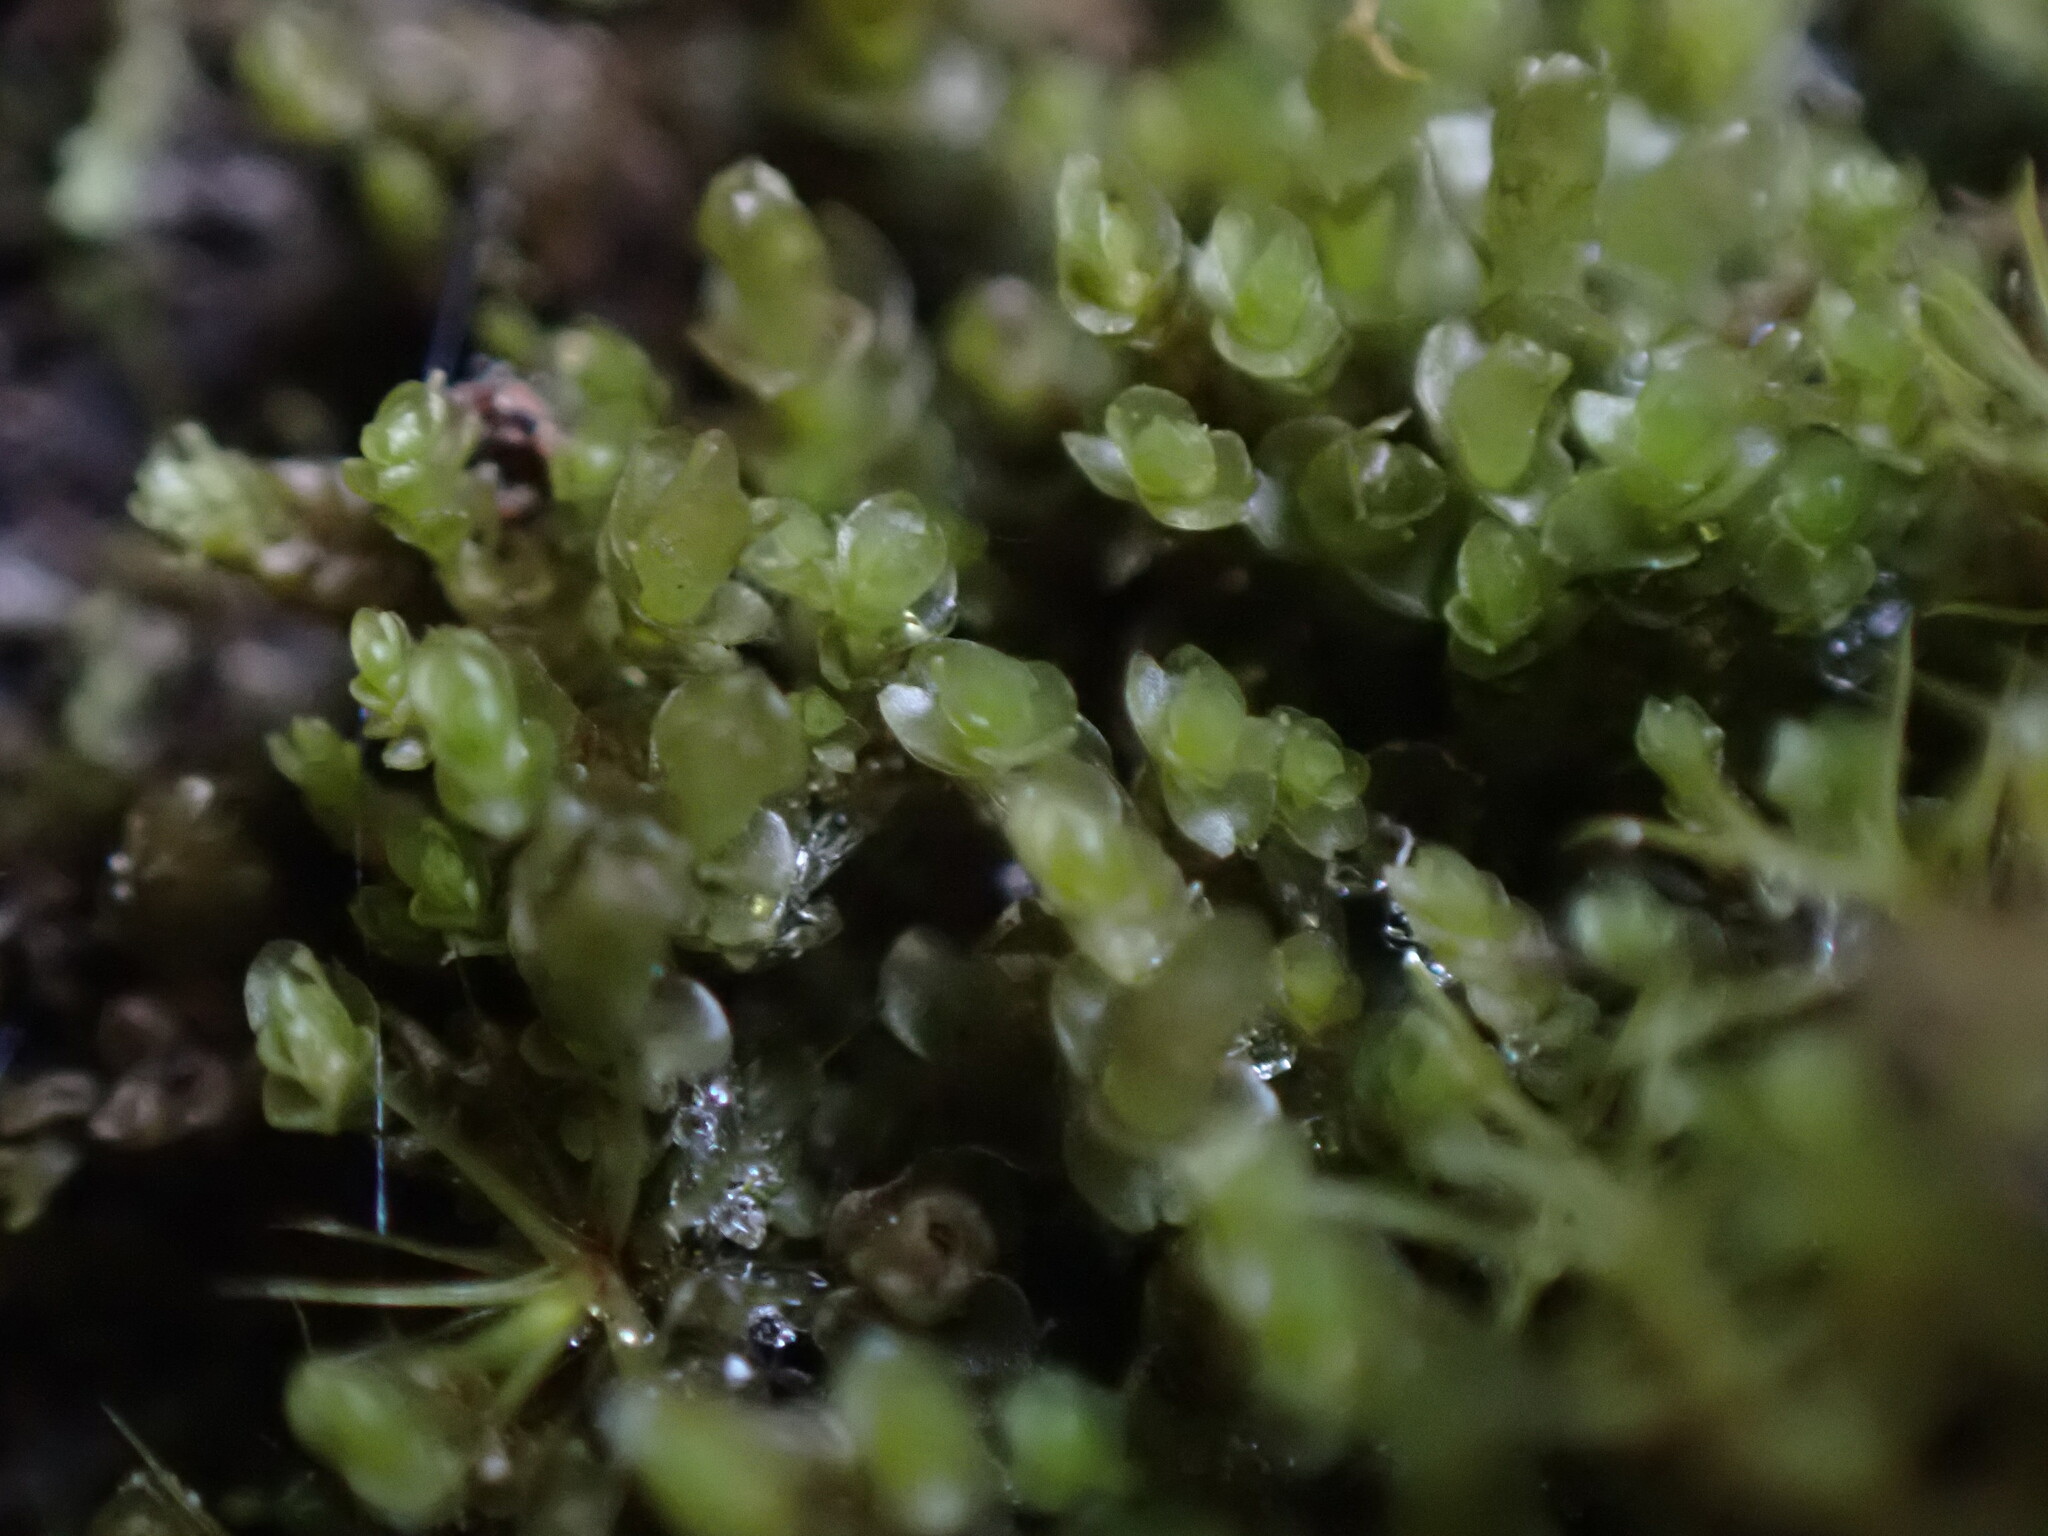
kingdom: Plantae
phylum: Marchantiophyta
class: Jungermanniopsida
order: Jungermanniales
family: Gymnomitriaceae
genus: Marsupella
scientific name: Marsupella emarginata
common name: Notched rustwort
